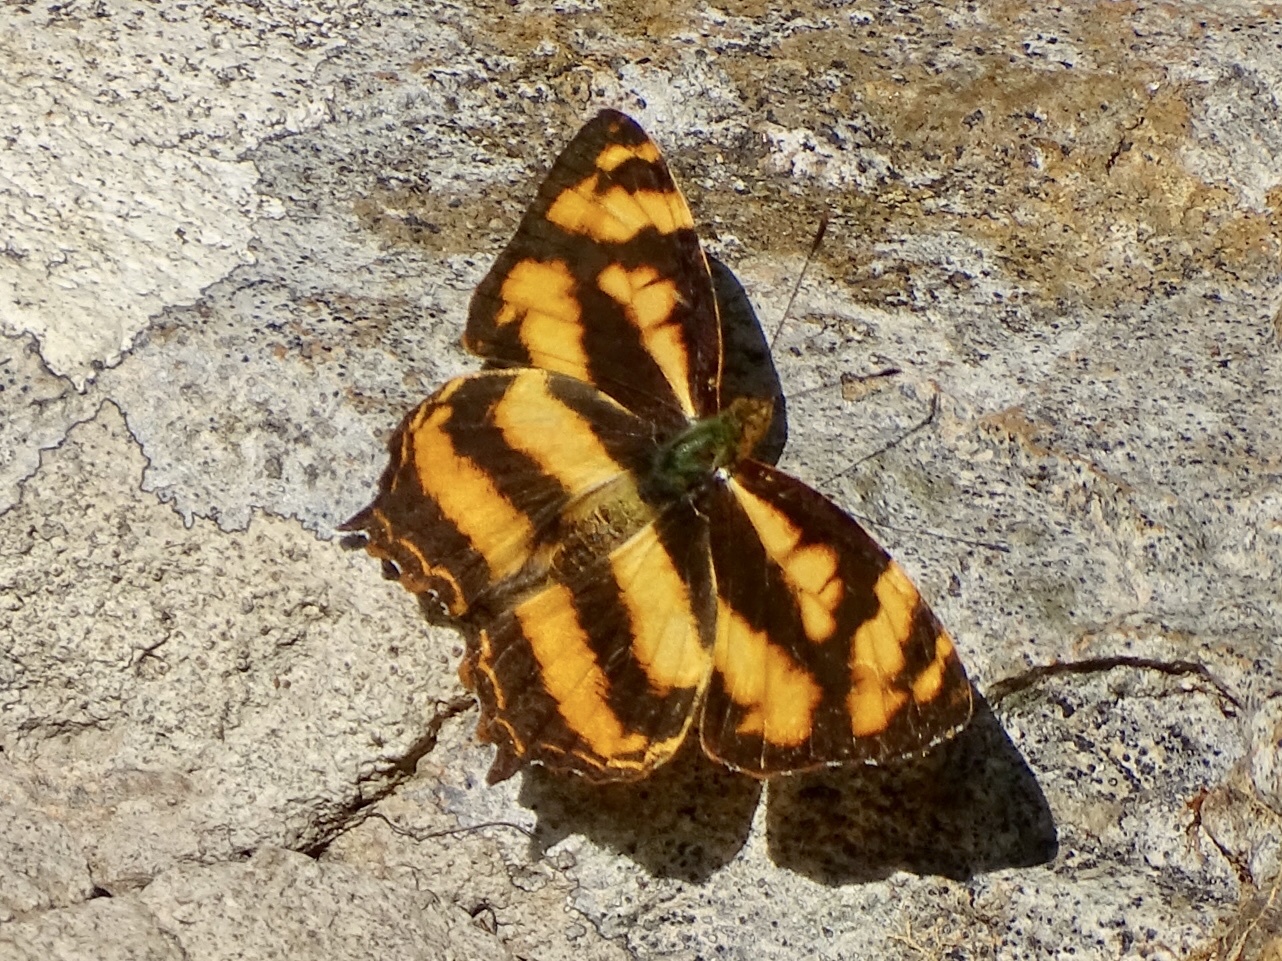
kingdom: Animalia
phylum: Arthropoda
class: Insecta
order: Lepidoptera
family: Nymphalidae
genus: Symbrenthia
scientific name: Symbrenthia hypselis
